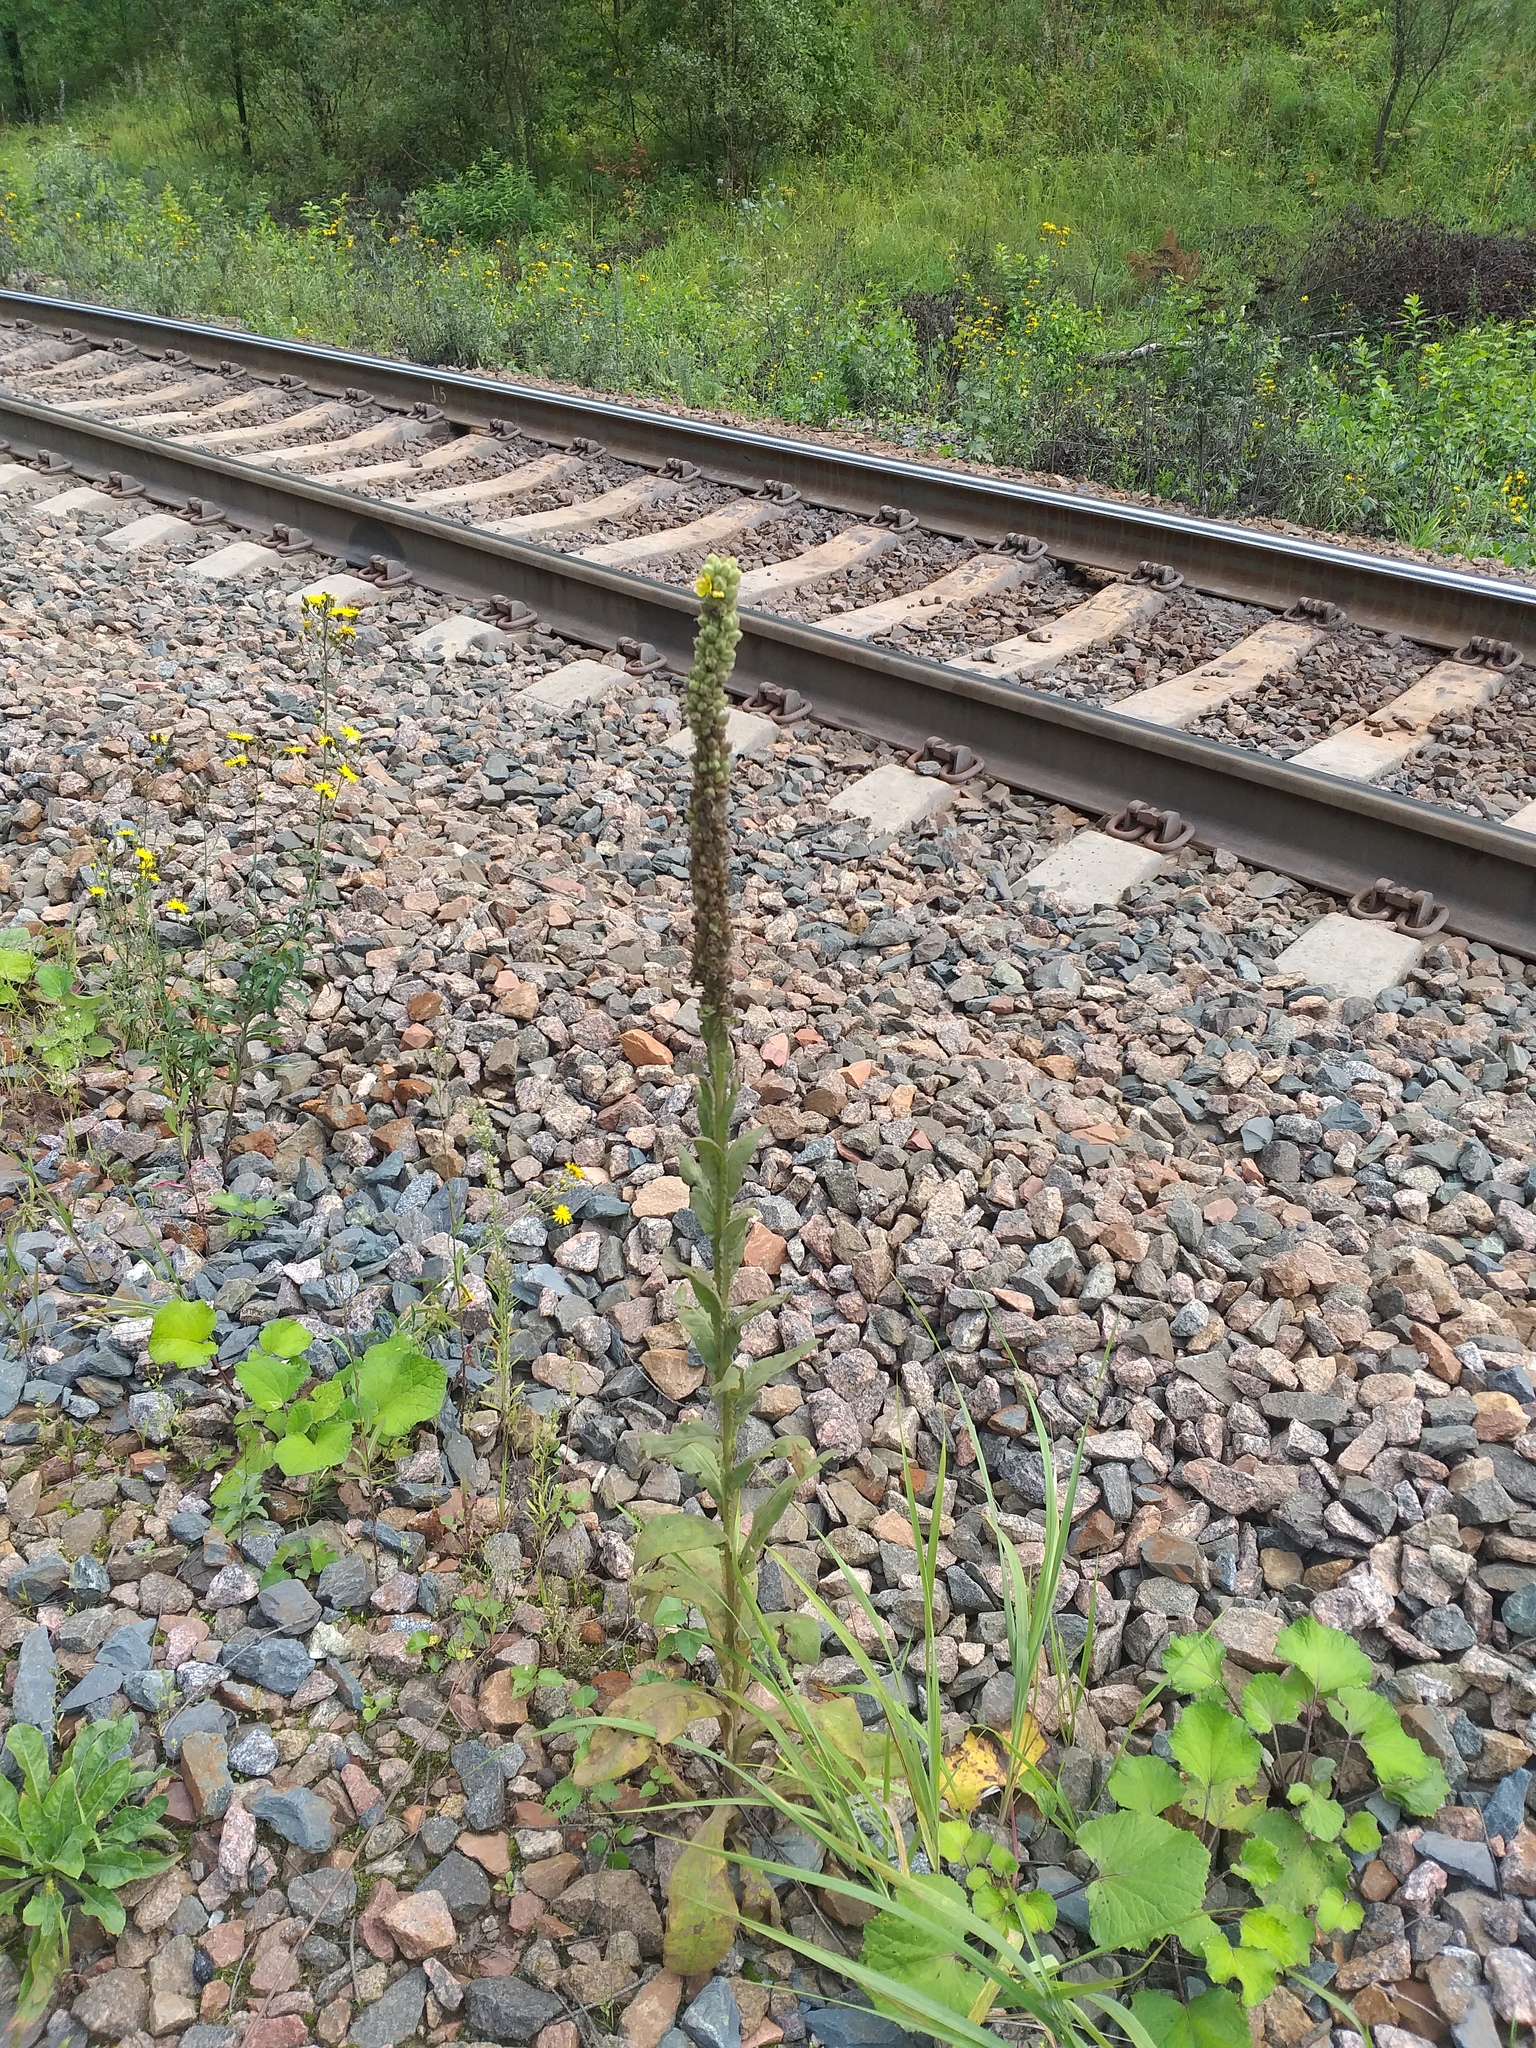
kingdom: Plantae
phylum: Tracheophyta
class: Magnoliopsida
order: Lamiales
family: Scrophulariaceae
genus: Verbascum
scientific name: Verbascum thapsus
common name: Common mullein
